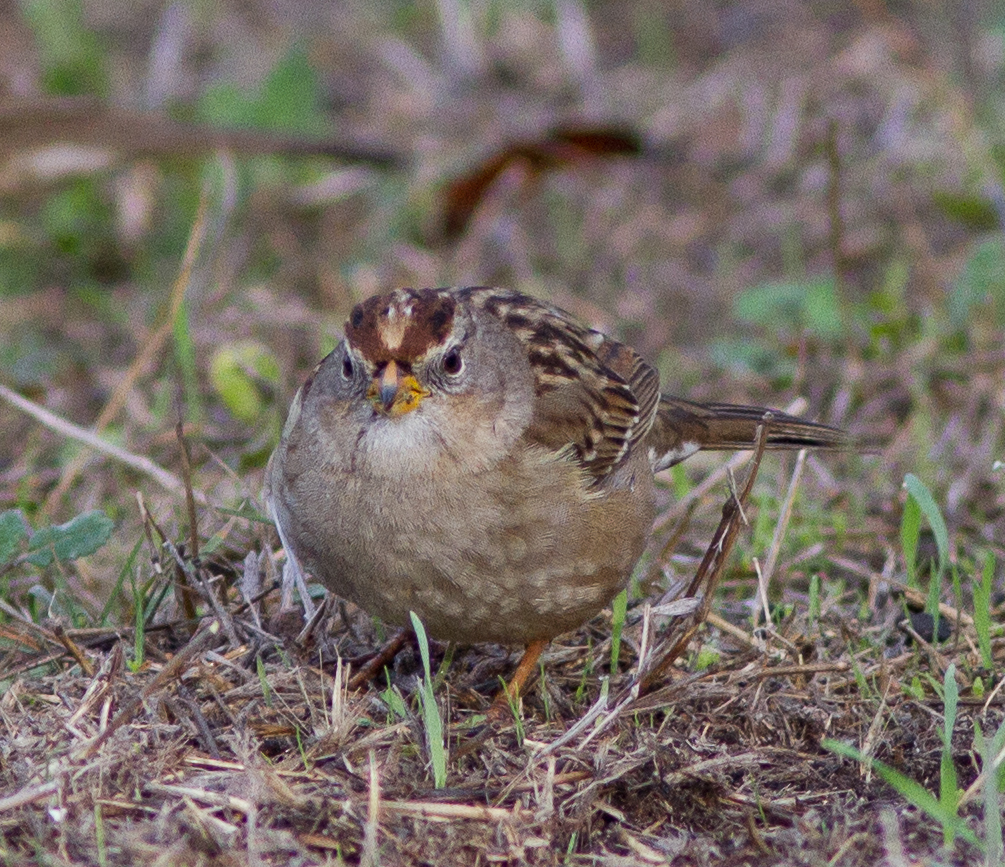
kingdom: Animalia
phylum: Chordata
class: Aves
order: Passeriformes
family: Passerellidae
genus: Zonotrichia
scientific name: Zonotrichia leucophrys
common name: White-crowned sparrow
